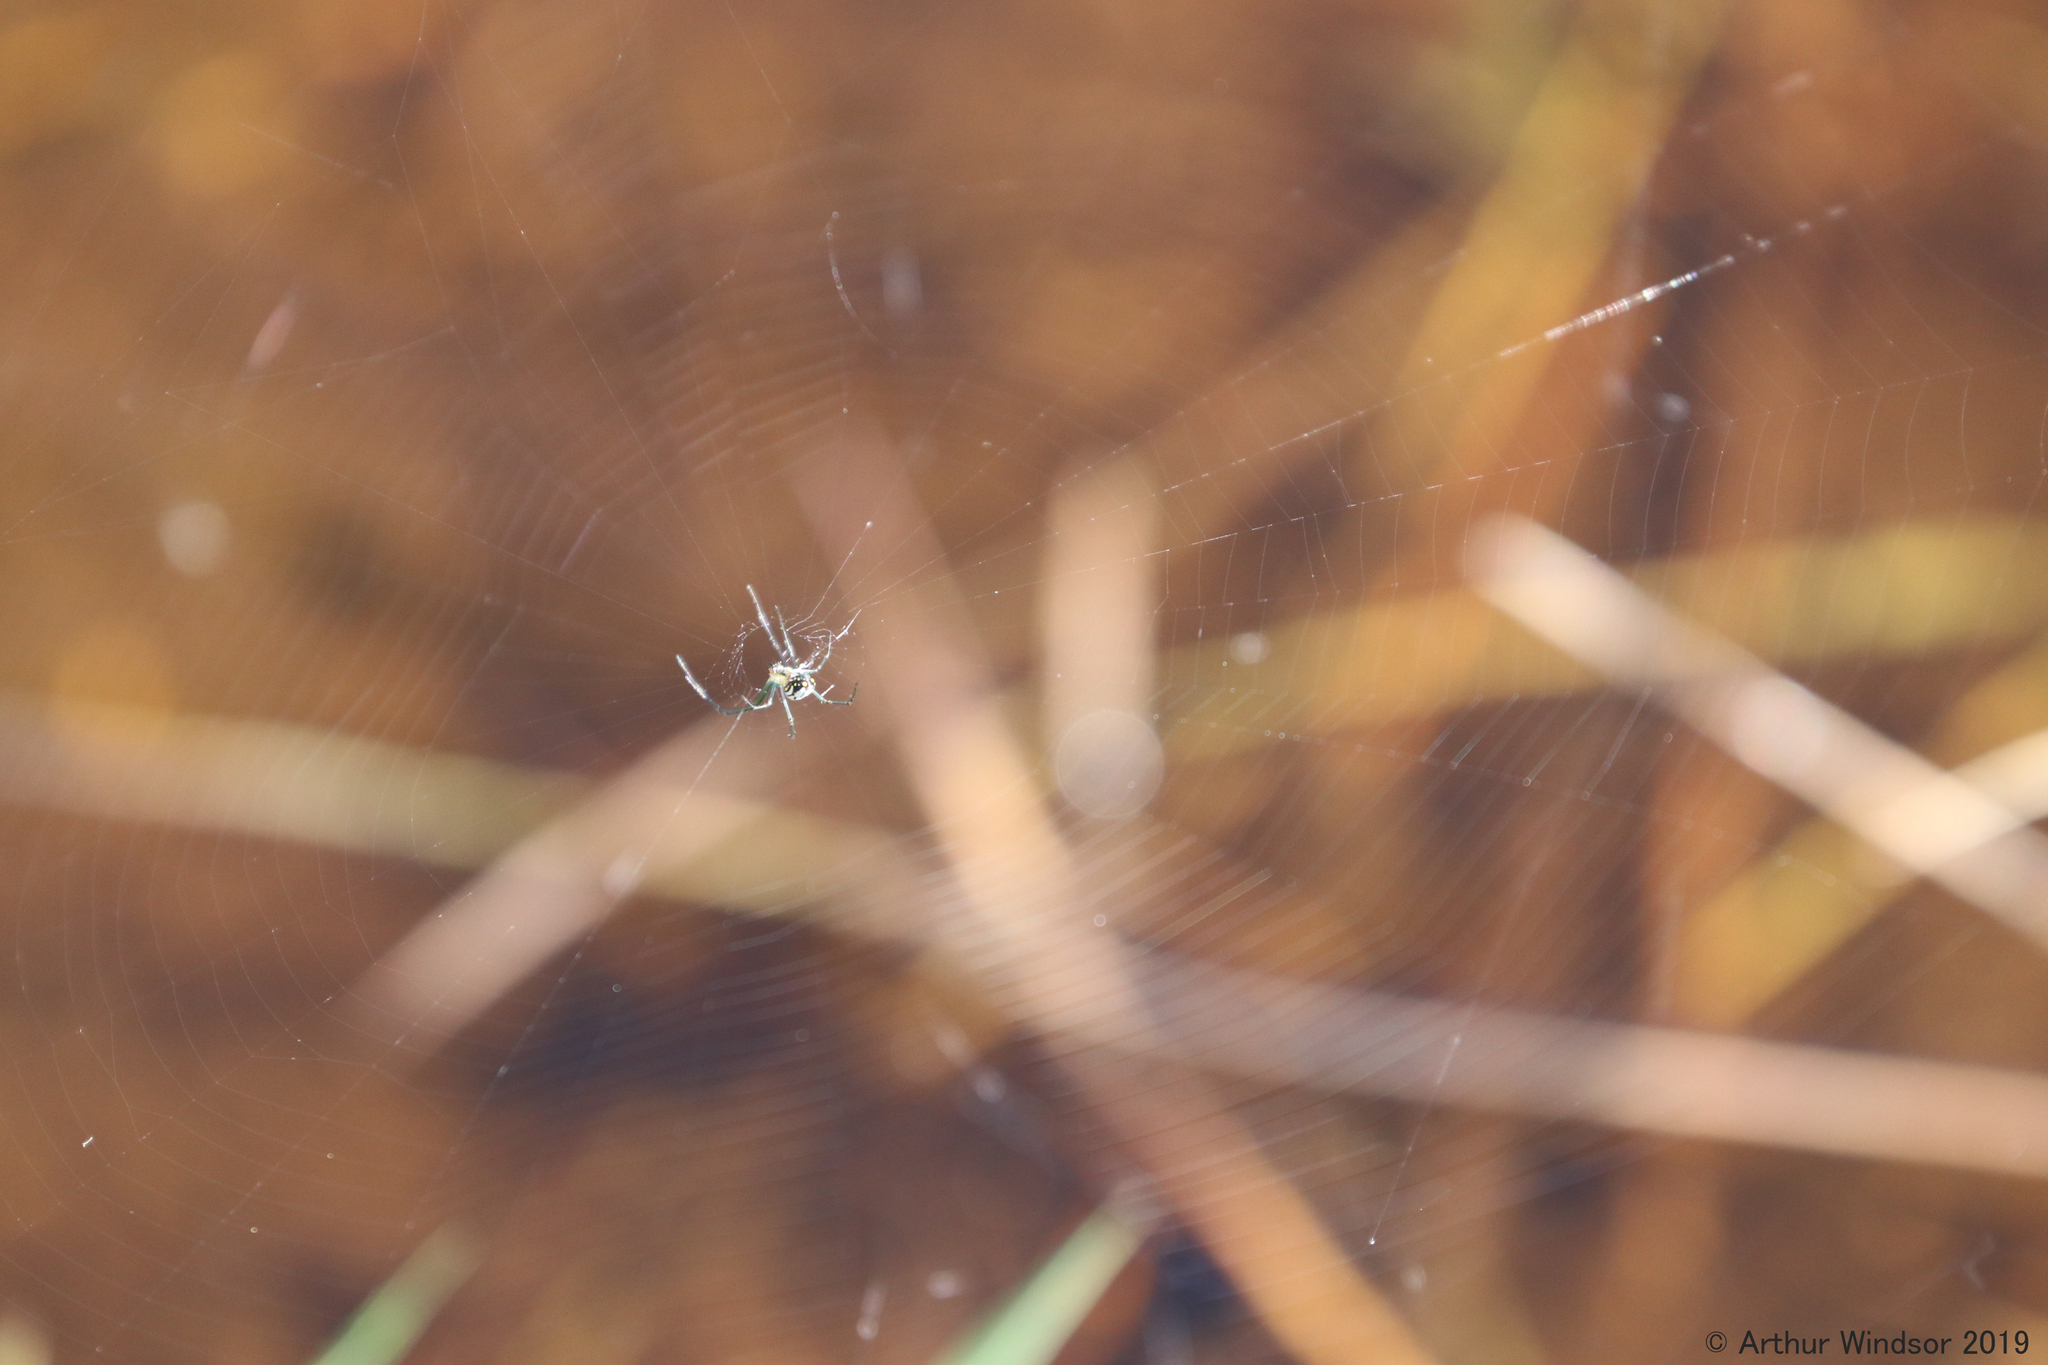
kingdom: Animalia
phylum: Arthropoda
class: Arachnida
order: Araneae
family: Tetragnathidae
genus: Leucauge
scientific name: Leucauge argyra
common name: Longjawed orb weavers
